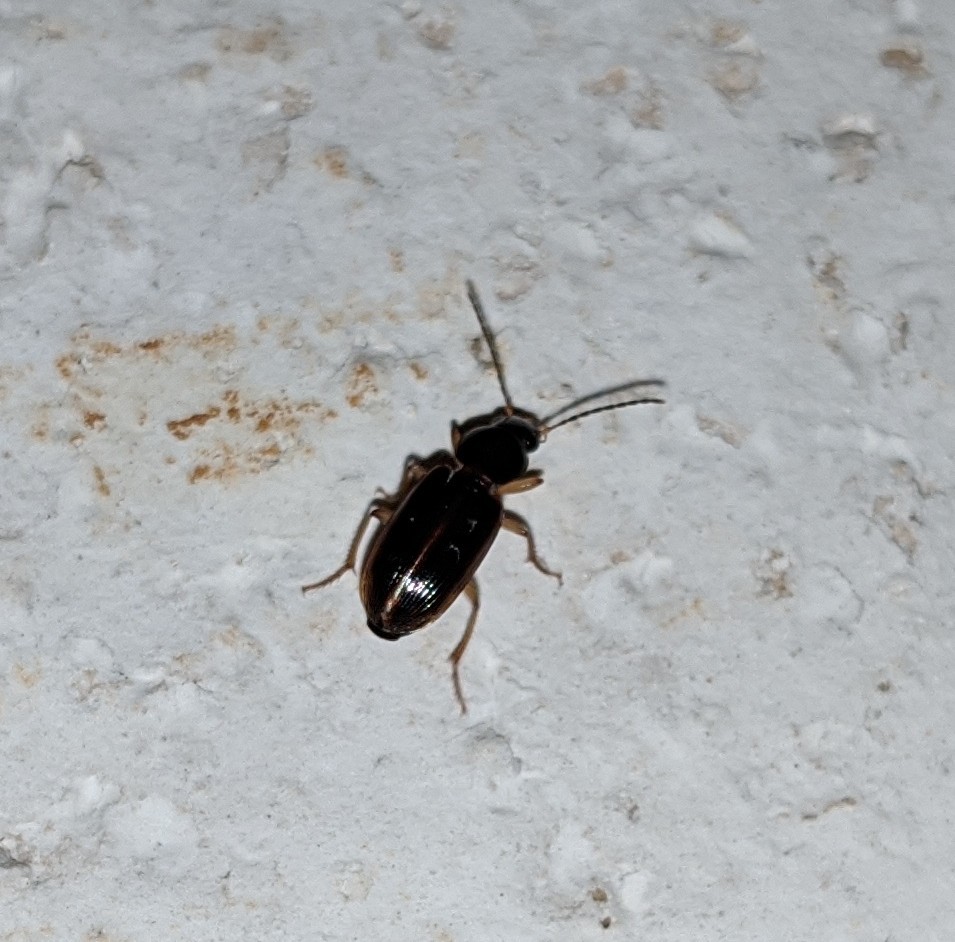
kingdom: Animalia
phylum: Arthropoda
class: Insecta
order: Coleoptera
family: Carabidae
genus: Stenolophus
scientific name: Stenolophus ochropezus
